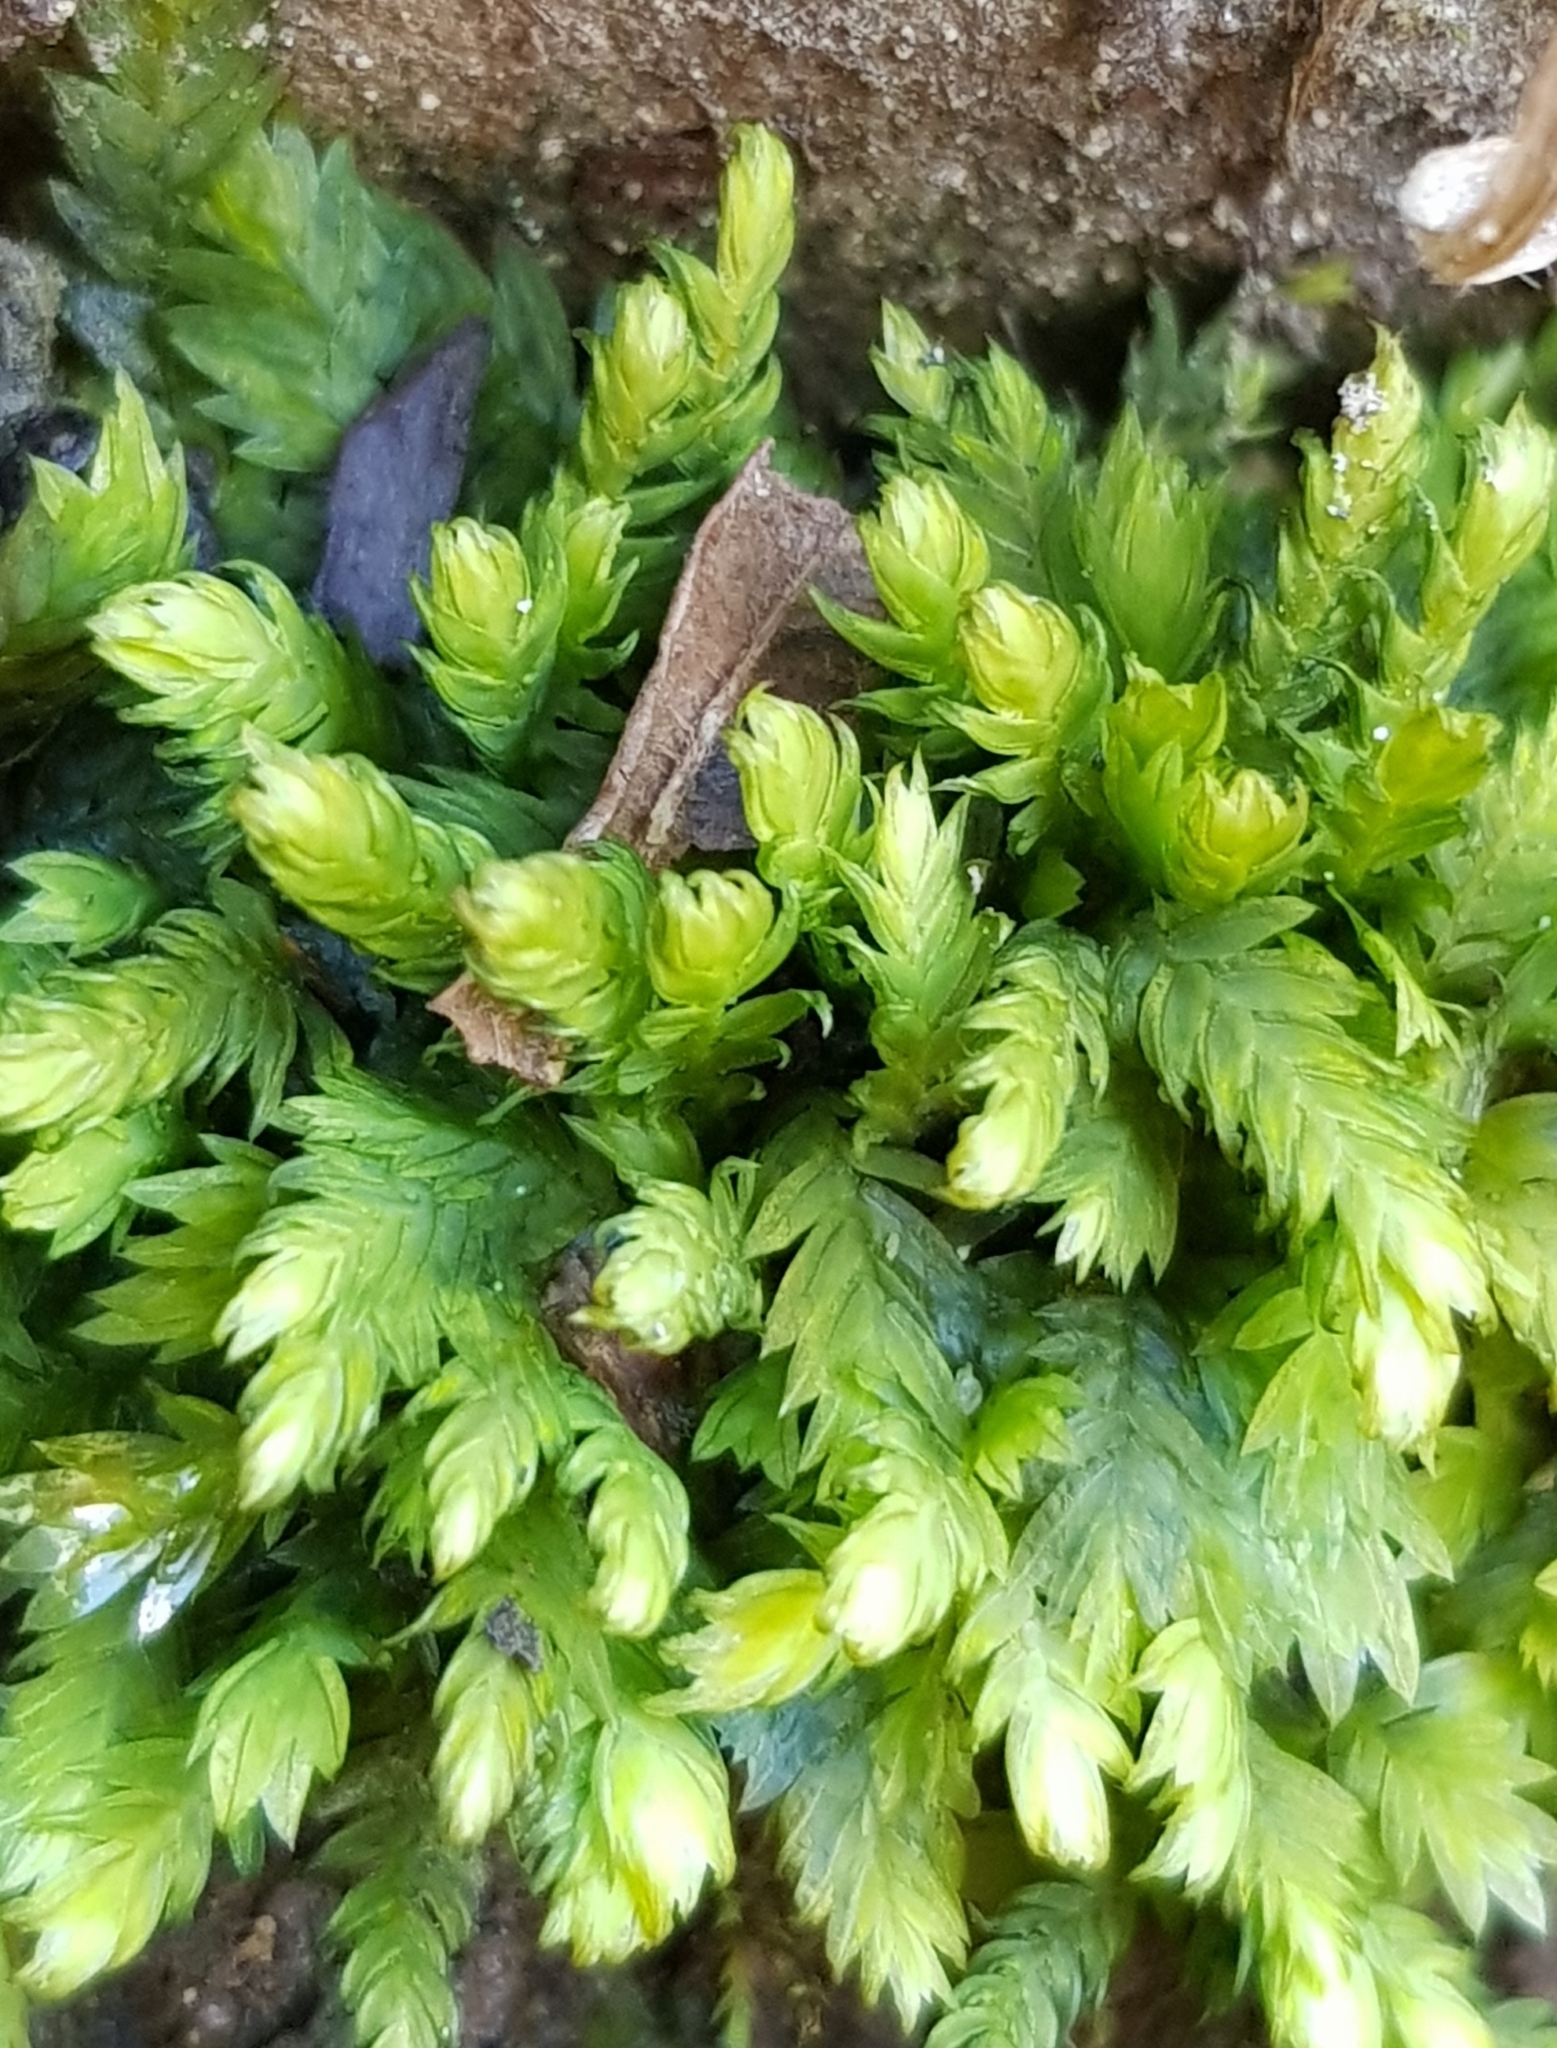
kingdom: Plantae
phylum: Bryophyta
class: Bryopsida
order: Dicranales
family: Fissidentaceae
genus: Fissidens
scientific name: Fissidens taxifolius
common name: Yew-leaved pocket moss
